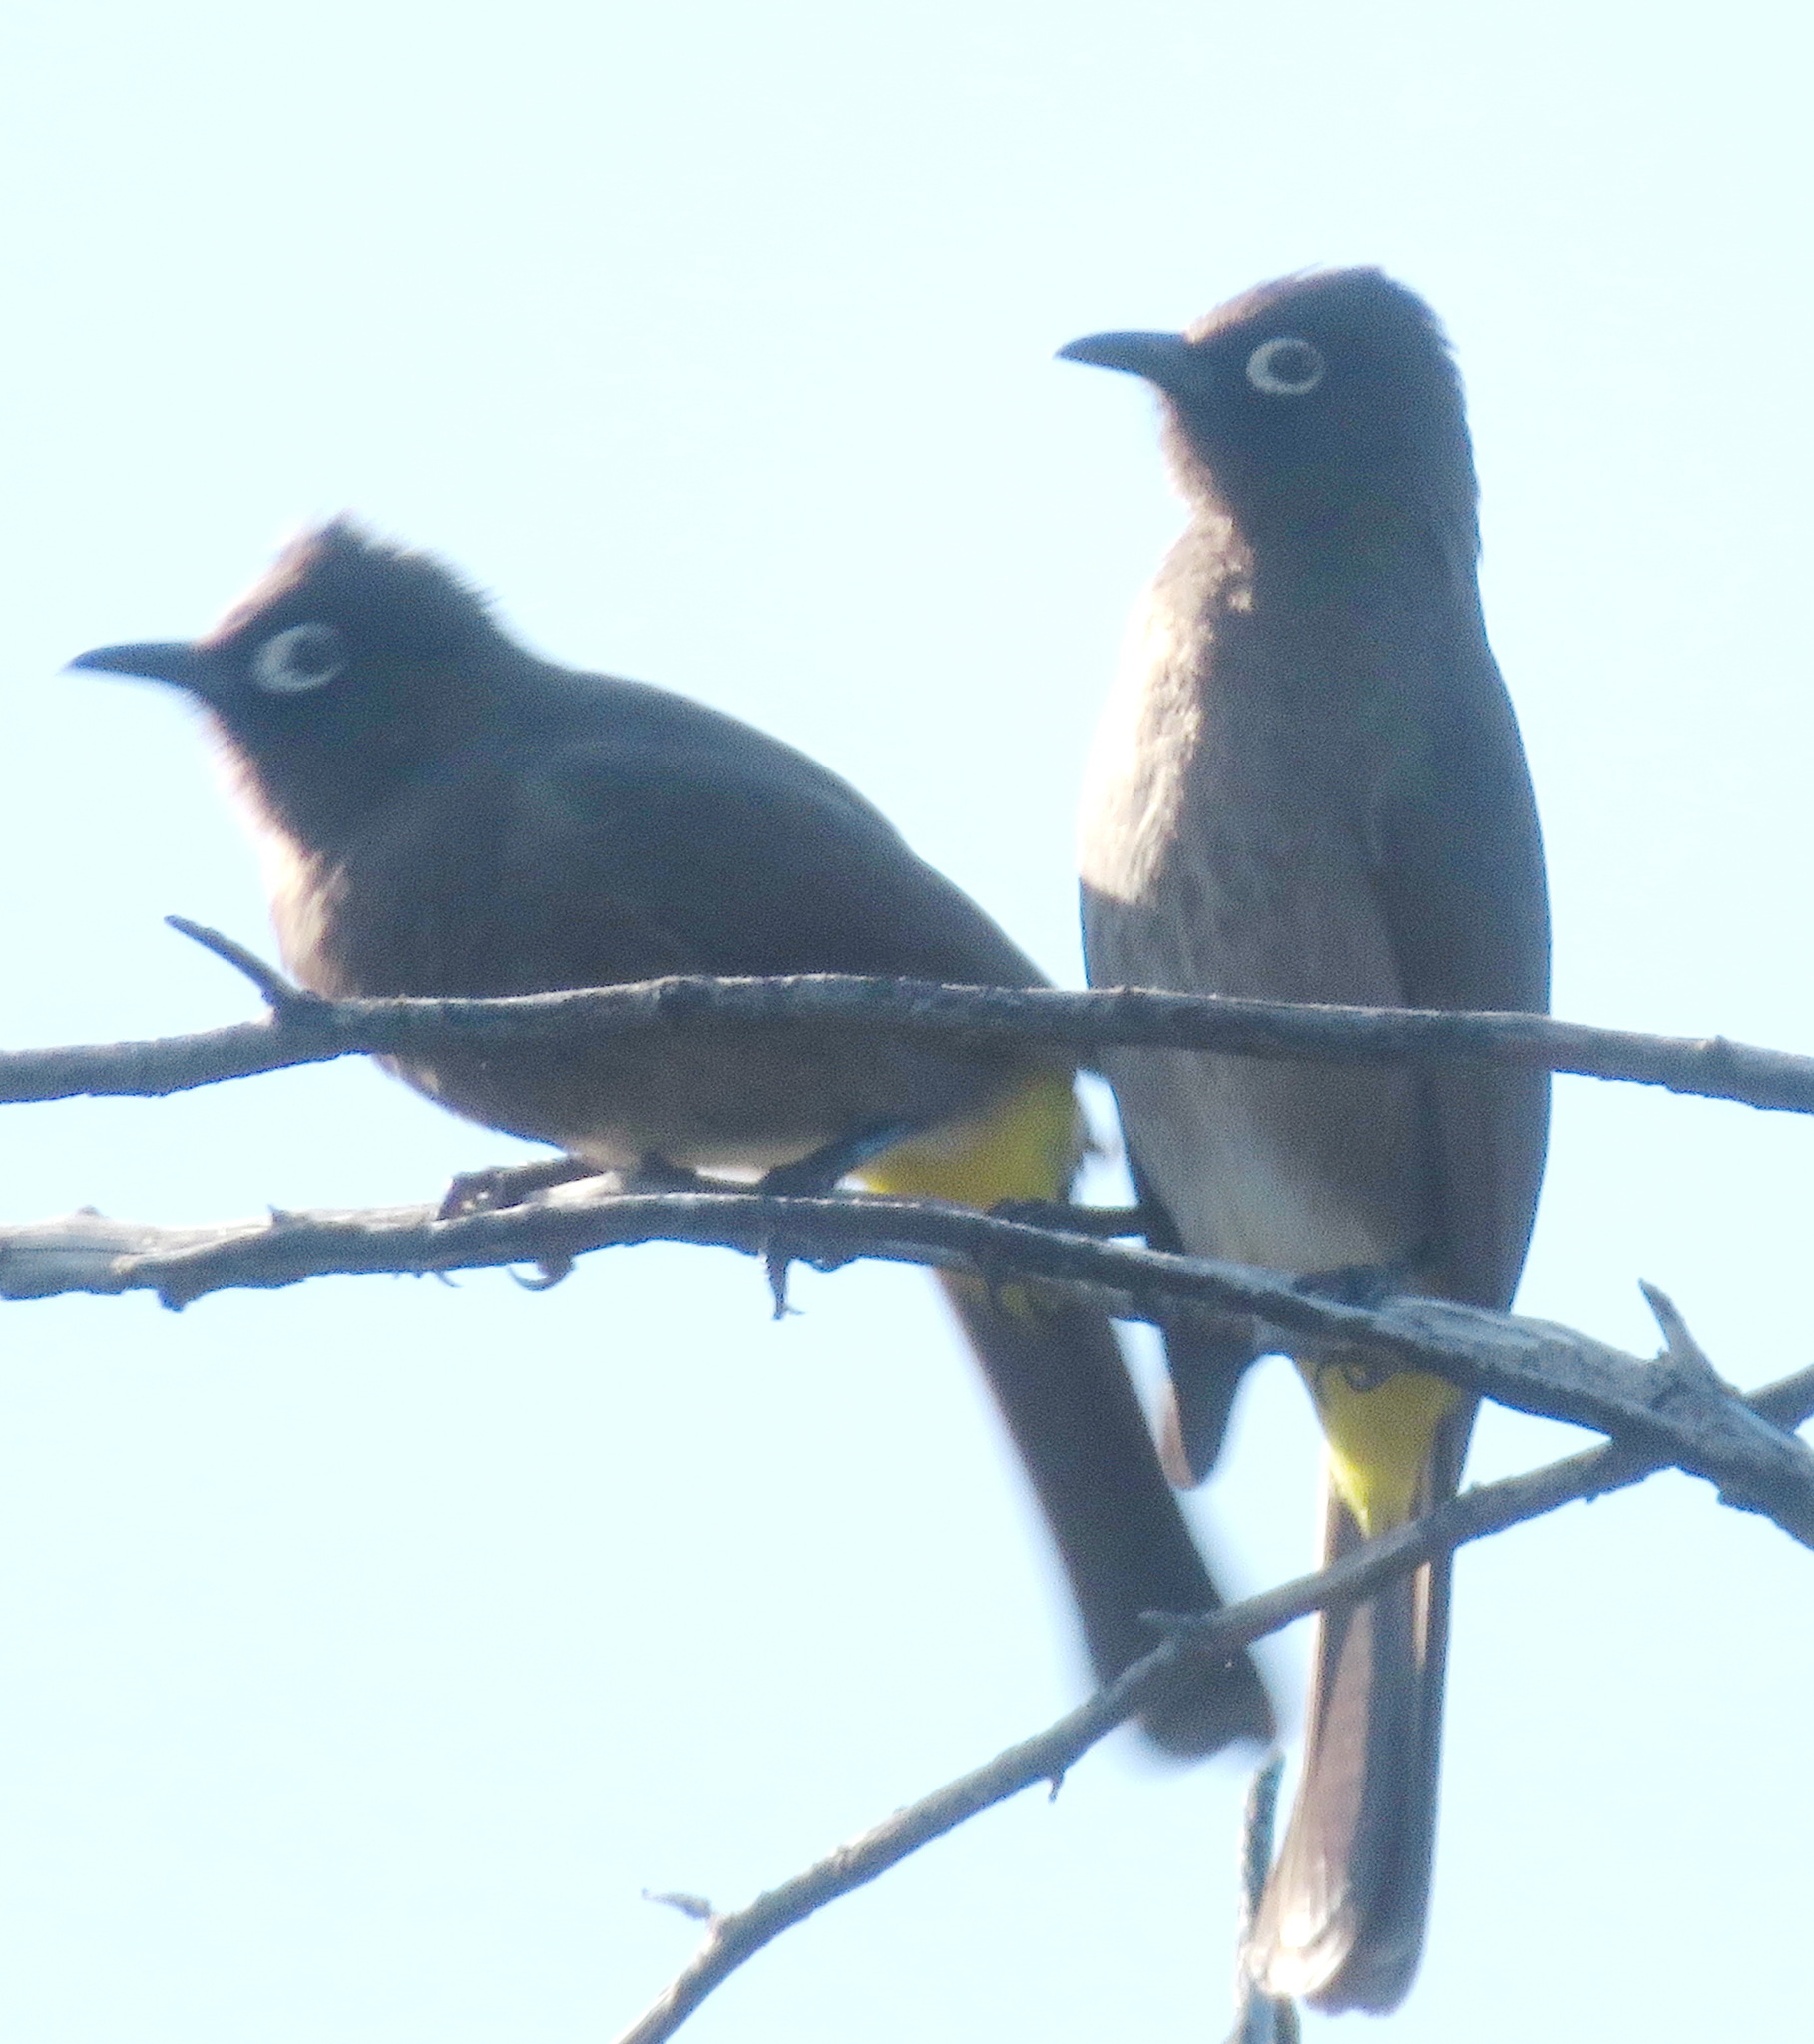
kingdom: Animalia
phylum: Chordata
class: Aves
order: Passeriformes
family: Pycnonotidae
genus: Pycnonotus
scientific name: Pycnonotus capensis
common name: Cape bulbul
